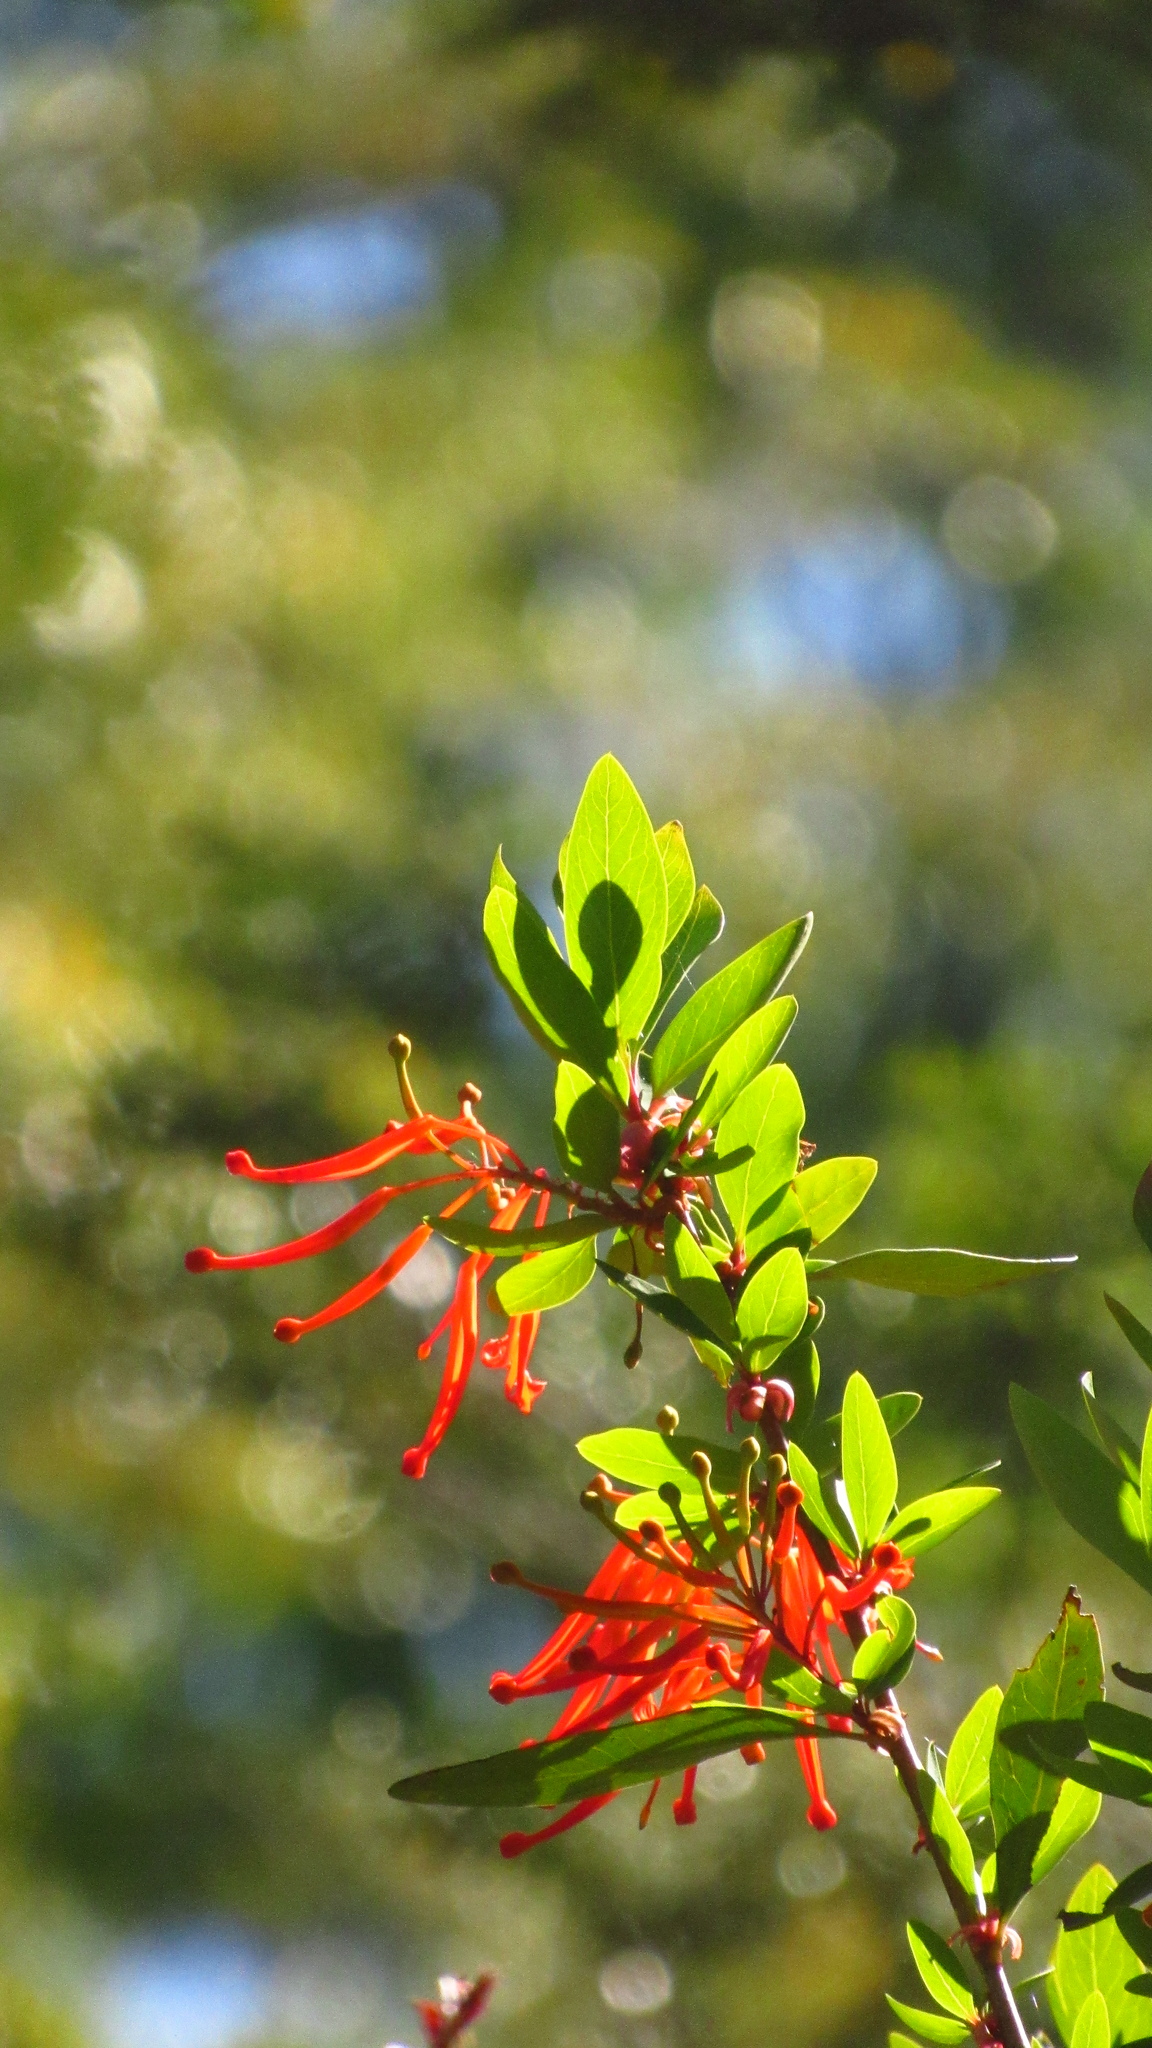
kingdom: Plantae
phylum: Tracheophyta
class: Magnoliopsida
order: Proteales
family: Proteaceae
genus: Embothrium
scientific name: Embothrium coccineum
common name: Chilean firebush
